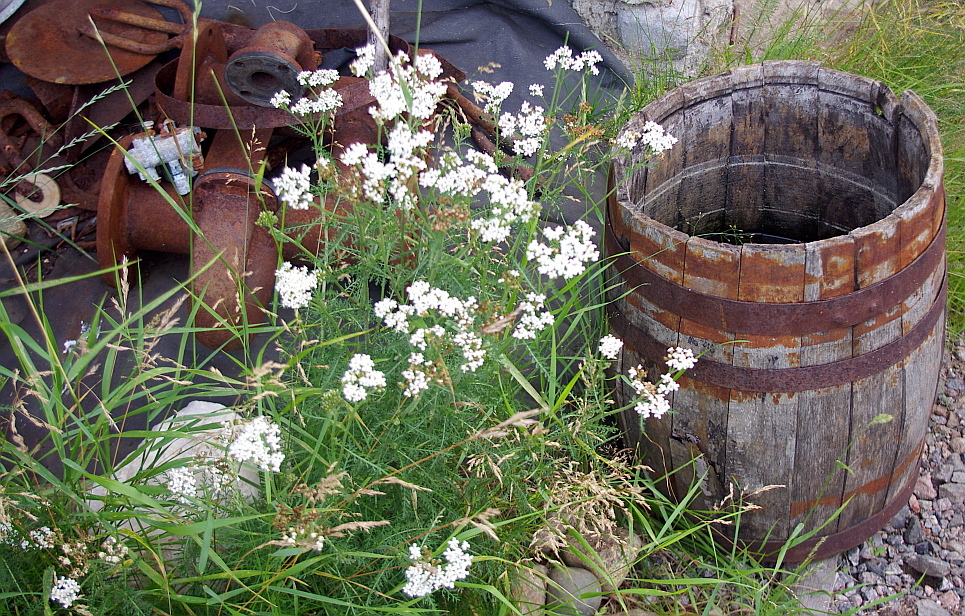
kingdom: Plantae
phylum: Tracheophyta
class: Magnoliopsida
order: Asterales
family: Asteraceae
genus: Achillea
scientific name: Achillea millefolium
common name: Yarrow
